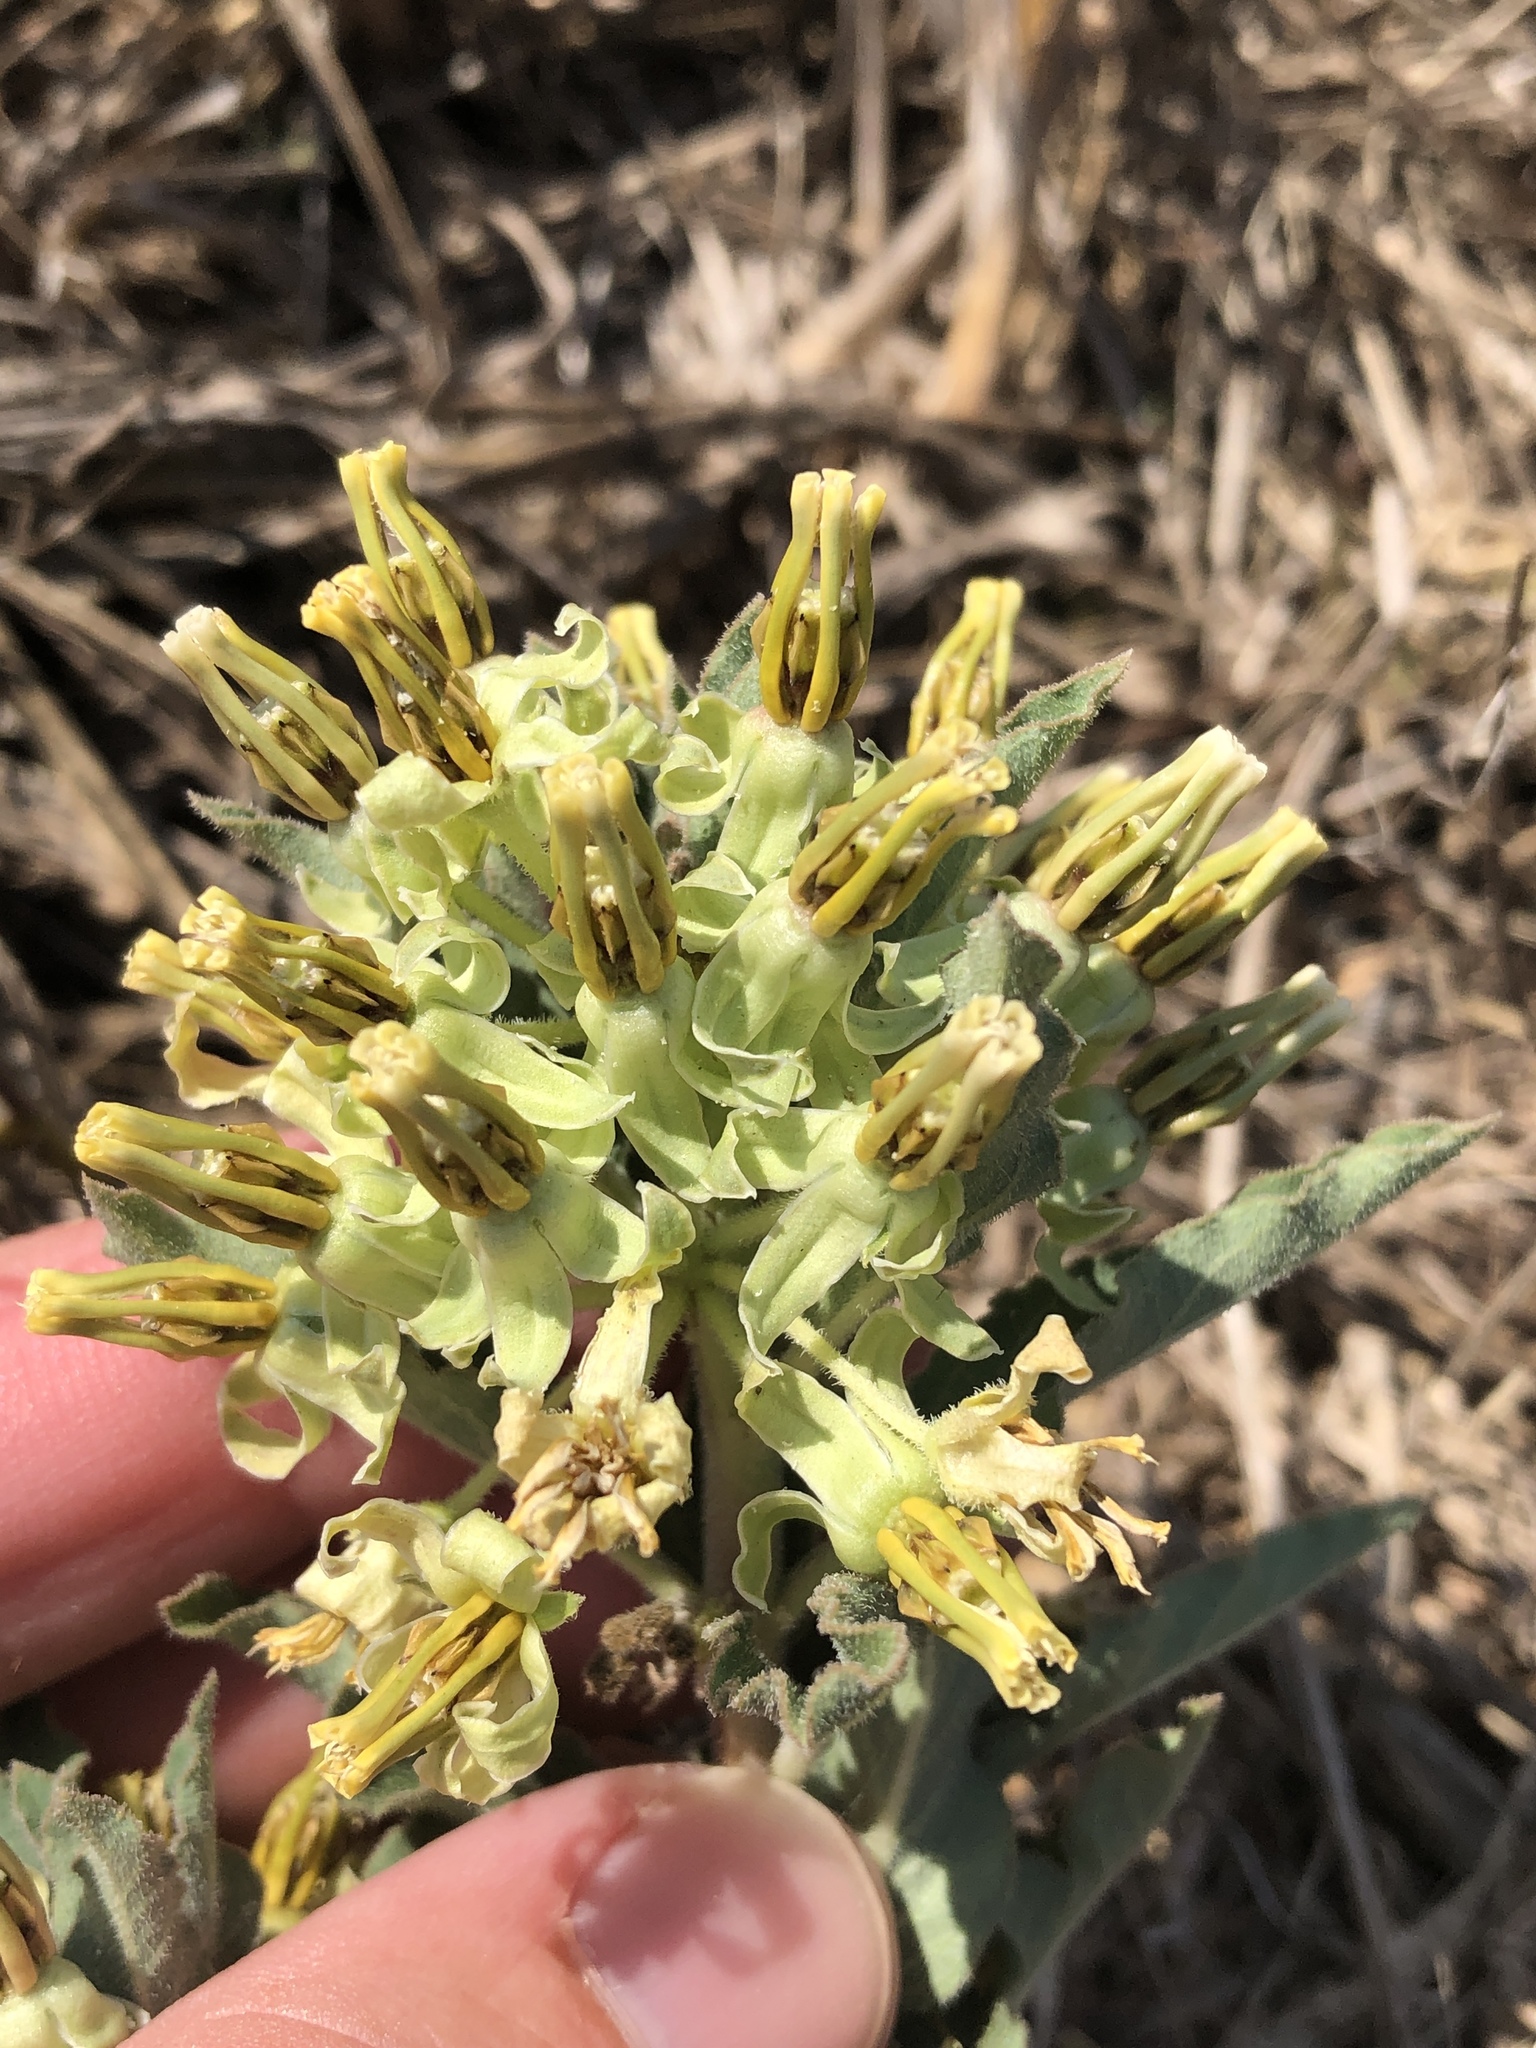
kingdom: Plantae
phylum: Tracheophyta
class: Magnoliopsida
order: Gentianales
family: Apocynaceae
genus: Asclepias
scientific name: Asclepias oenotheroides
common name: Zizotes milkweed
